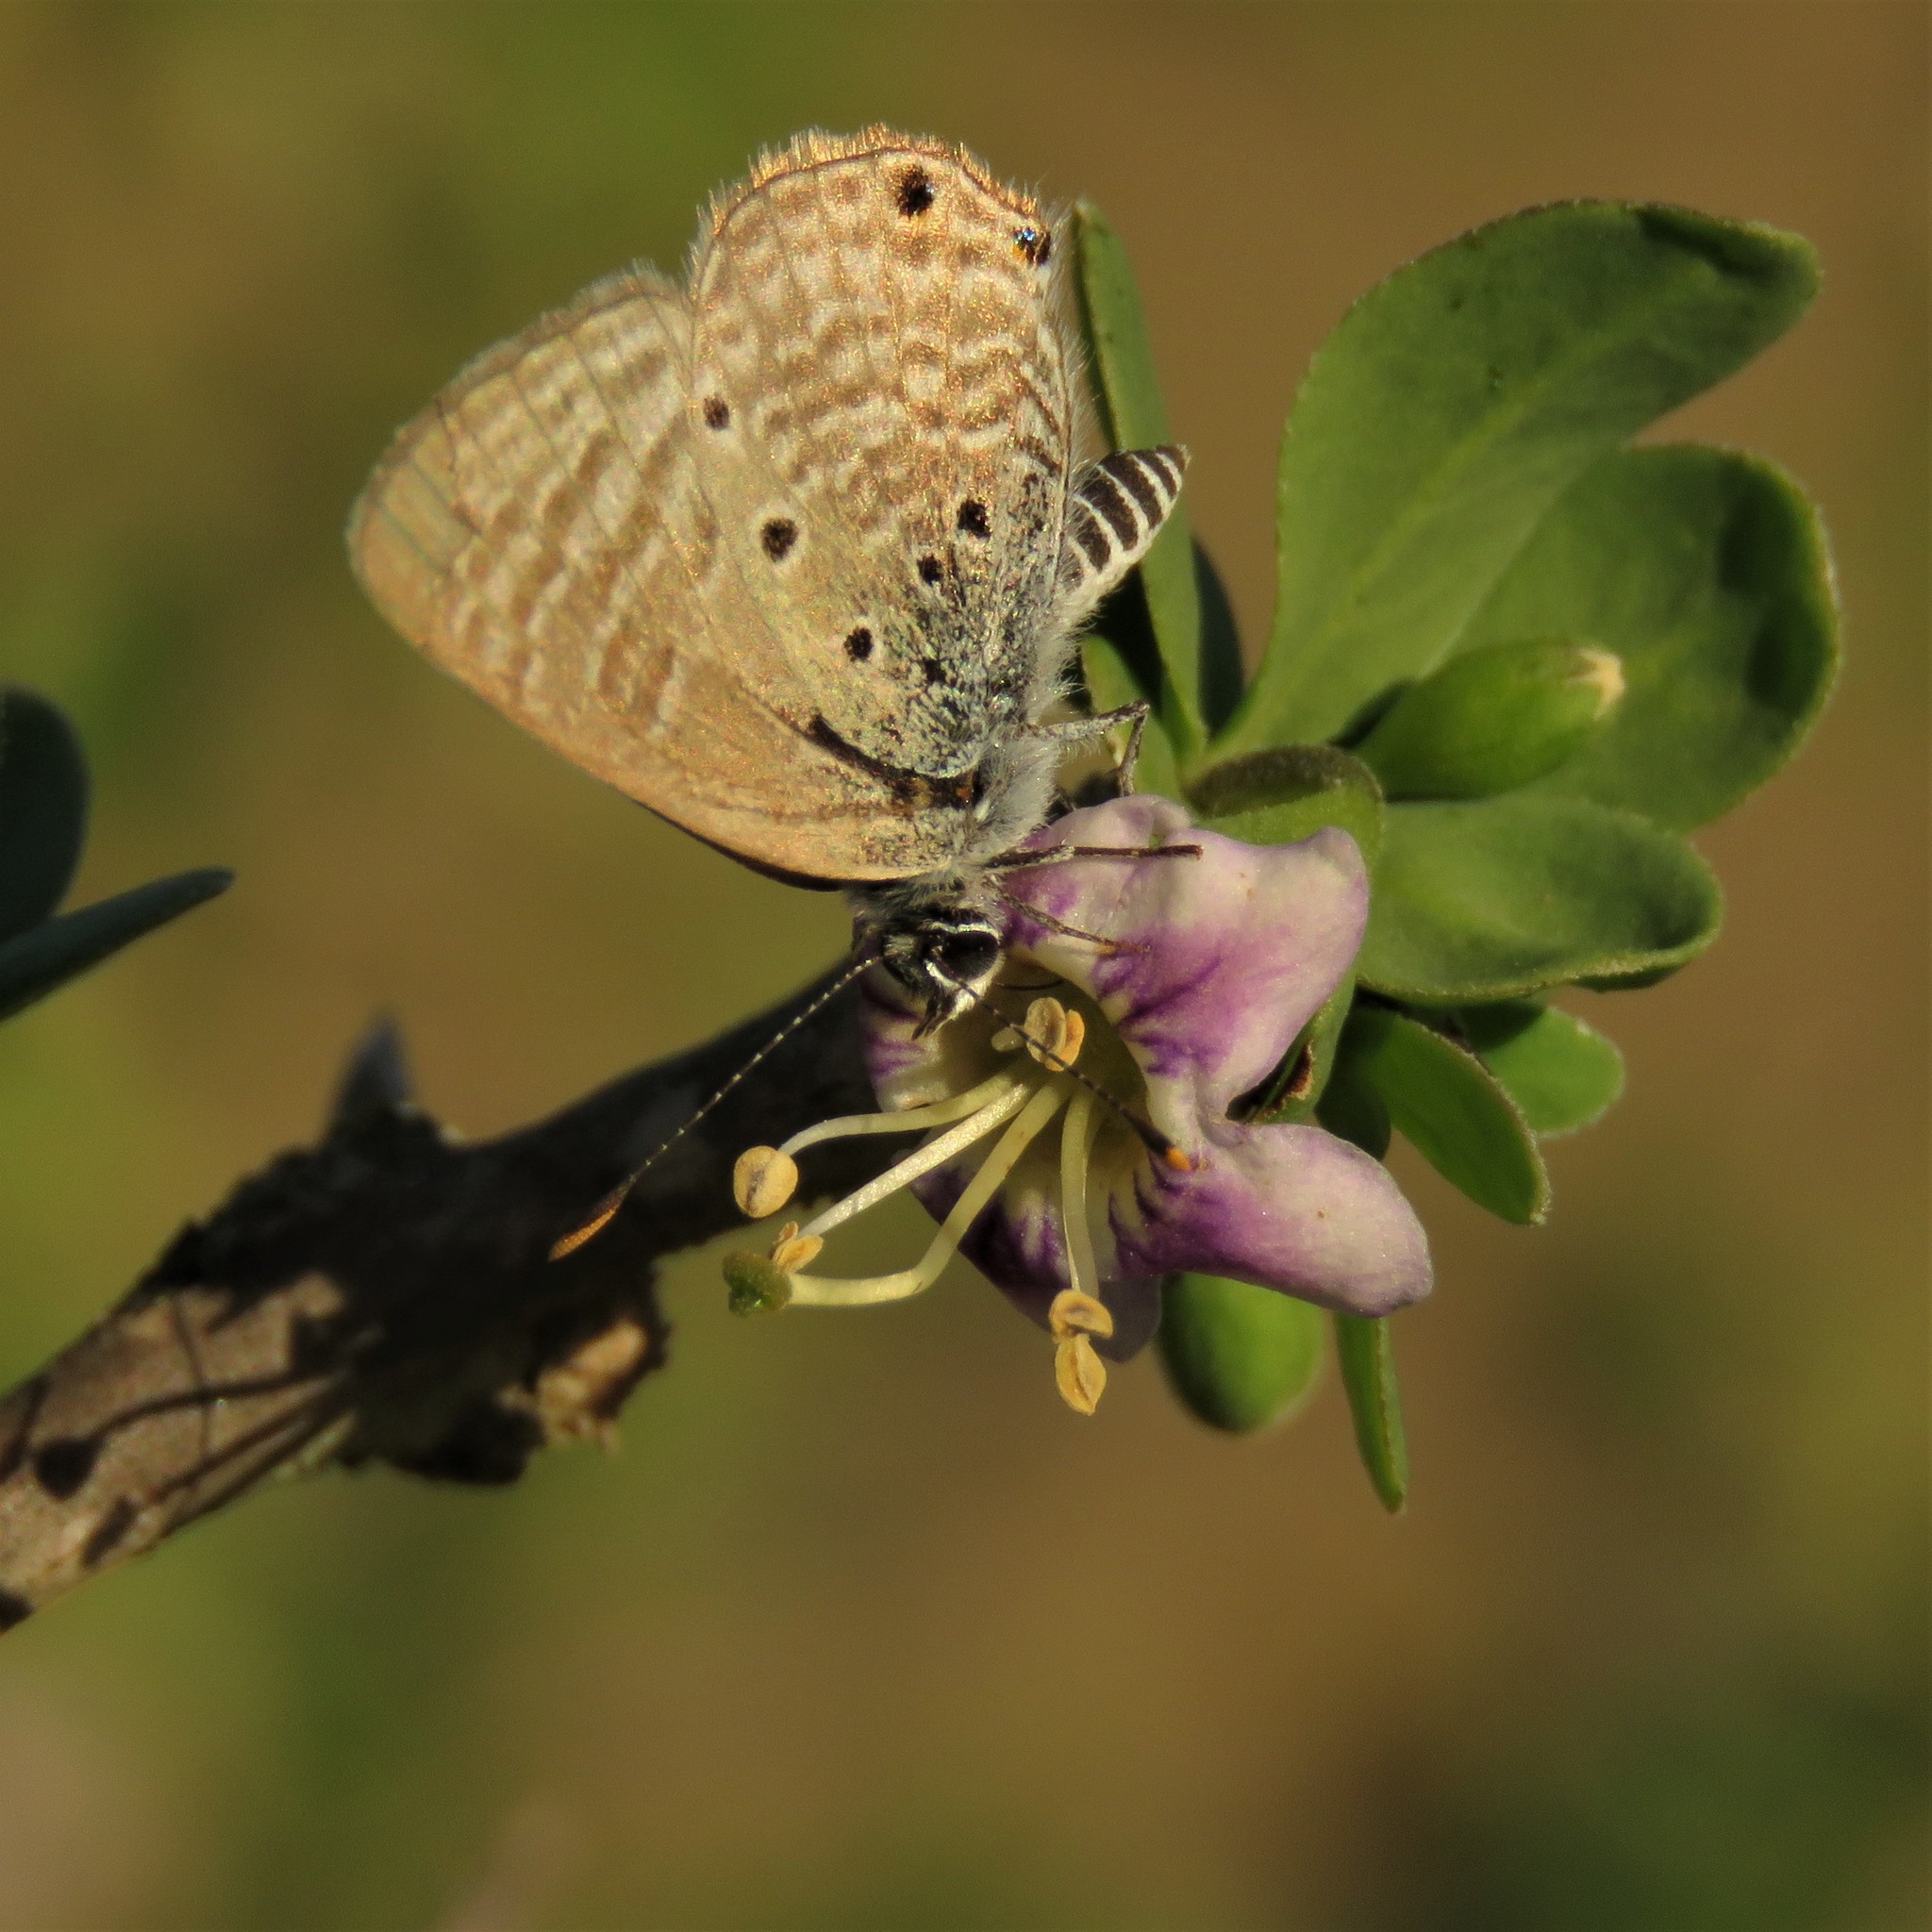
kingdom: Animalia
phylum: Arthropoda
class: Insecta
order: Lepidoptera
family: Lycaenidae
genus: Anthene
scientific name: Anthene amarah
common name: Black-striped hairtail
